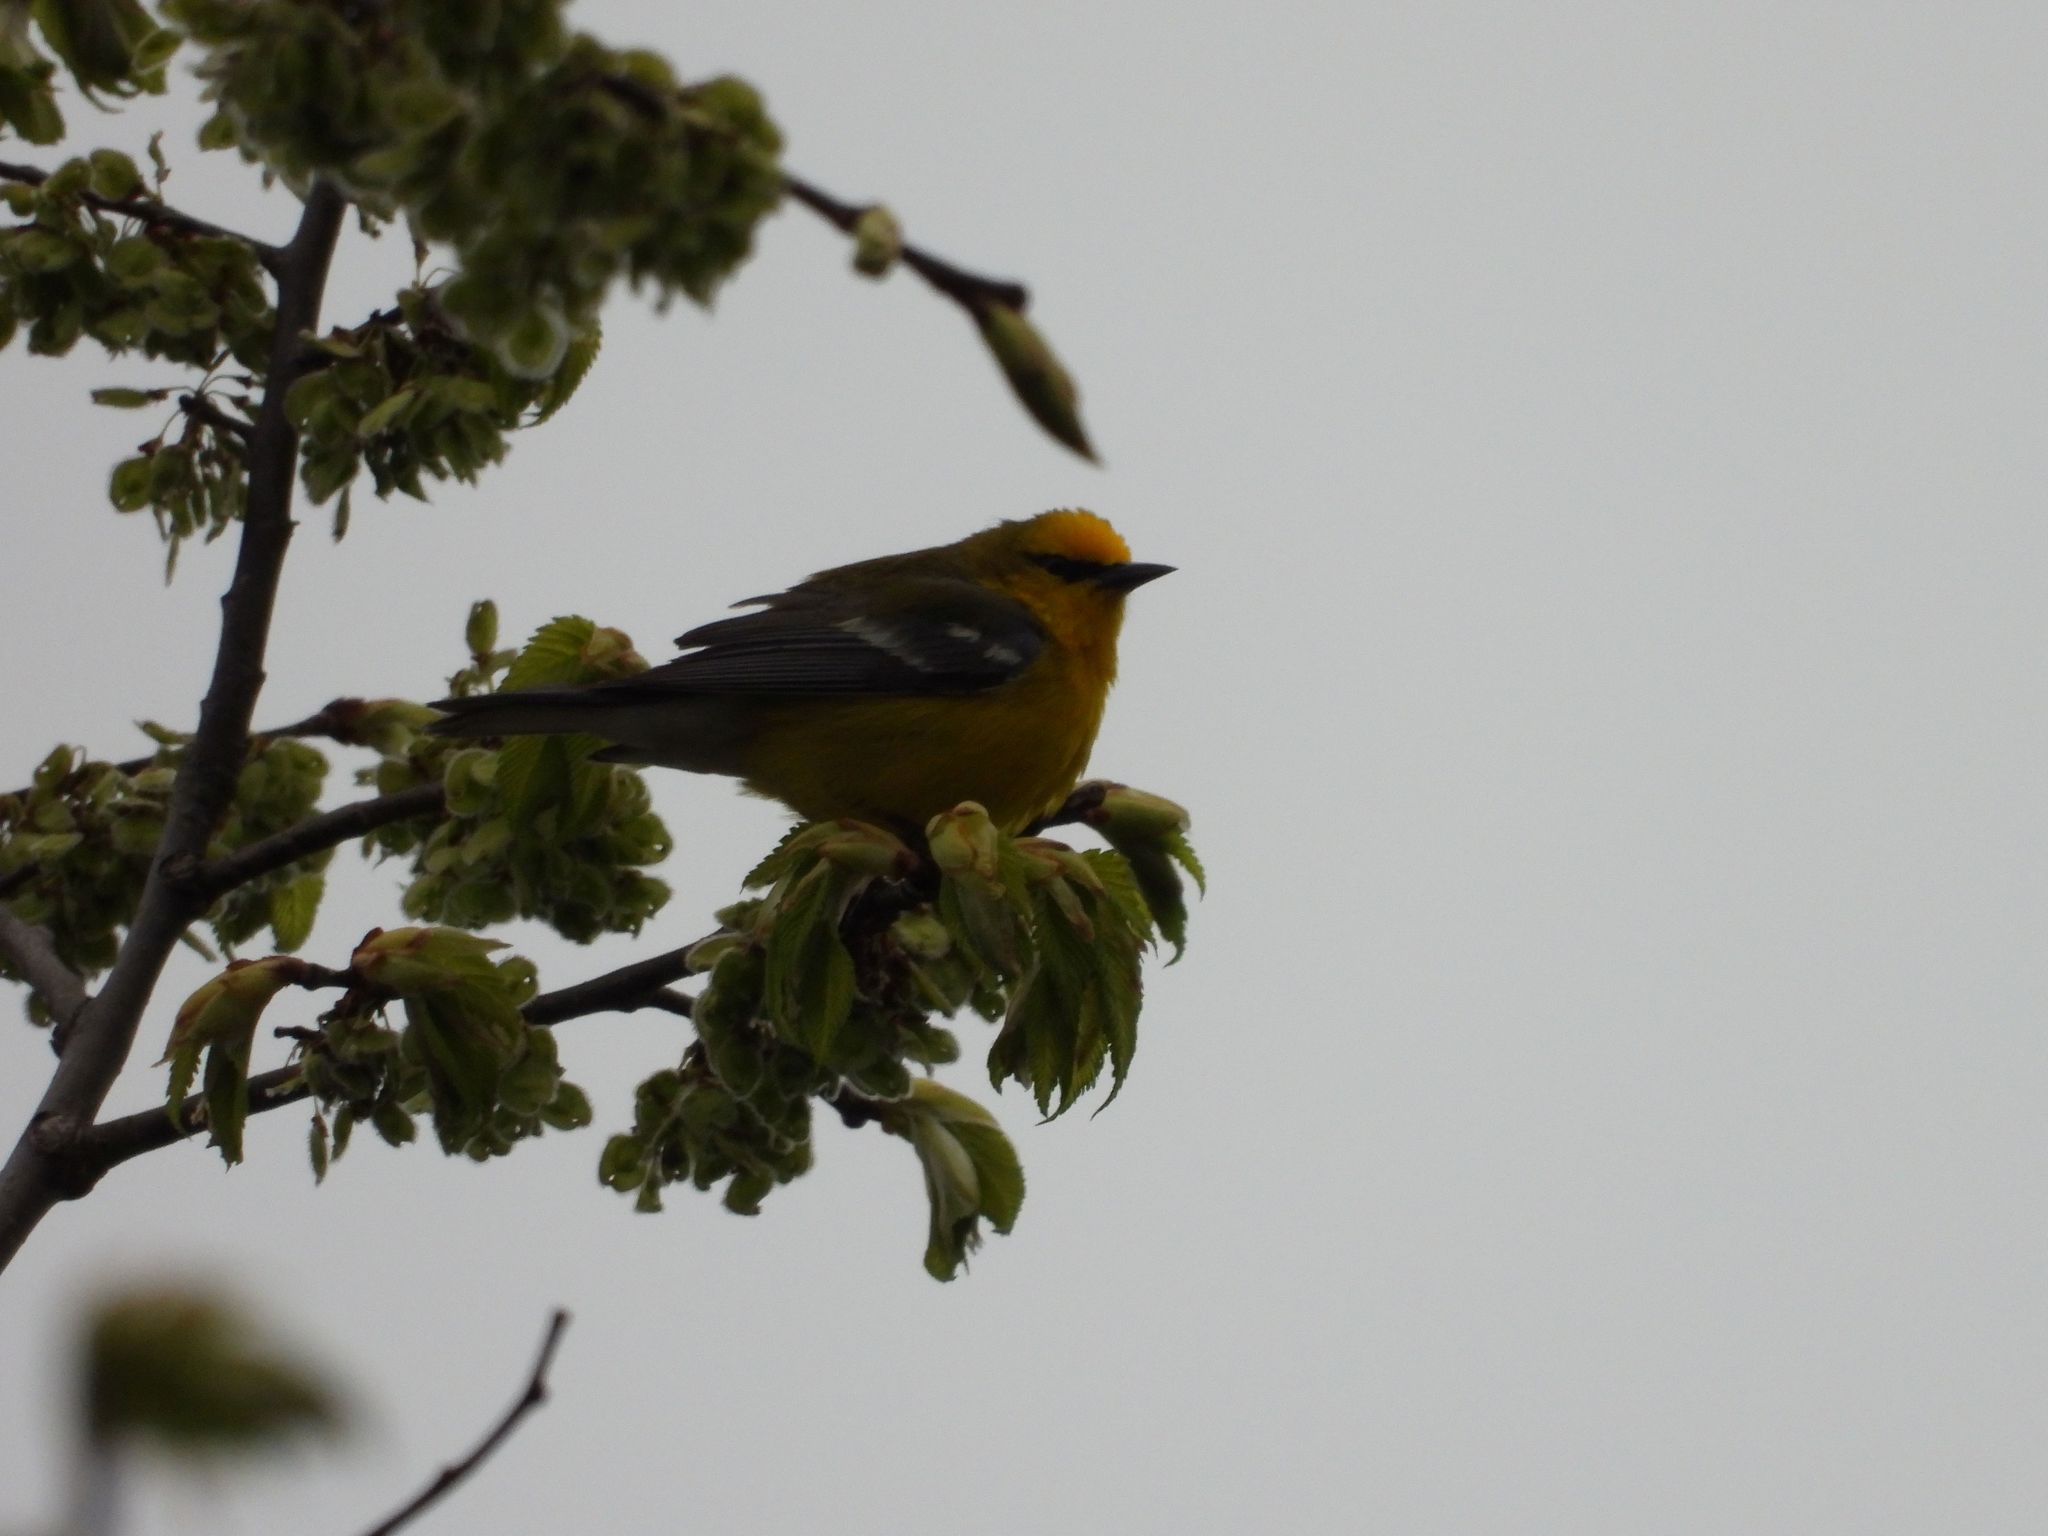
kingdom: Animalia
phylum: Chordata
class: Aves
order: Passeriformes
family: Parulidae
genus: Vermivora
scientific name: Vermivora cyanoptera
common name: Blue-winged warbler
